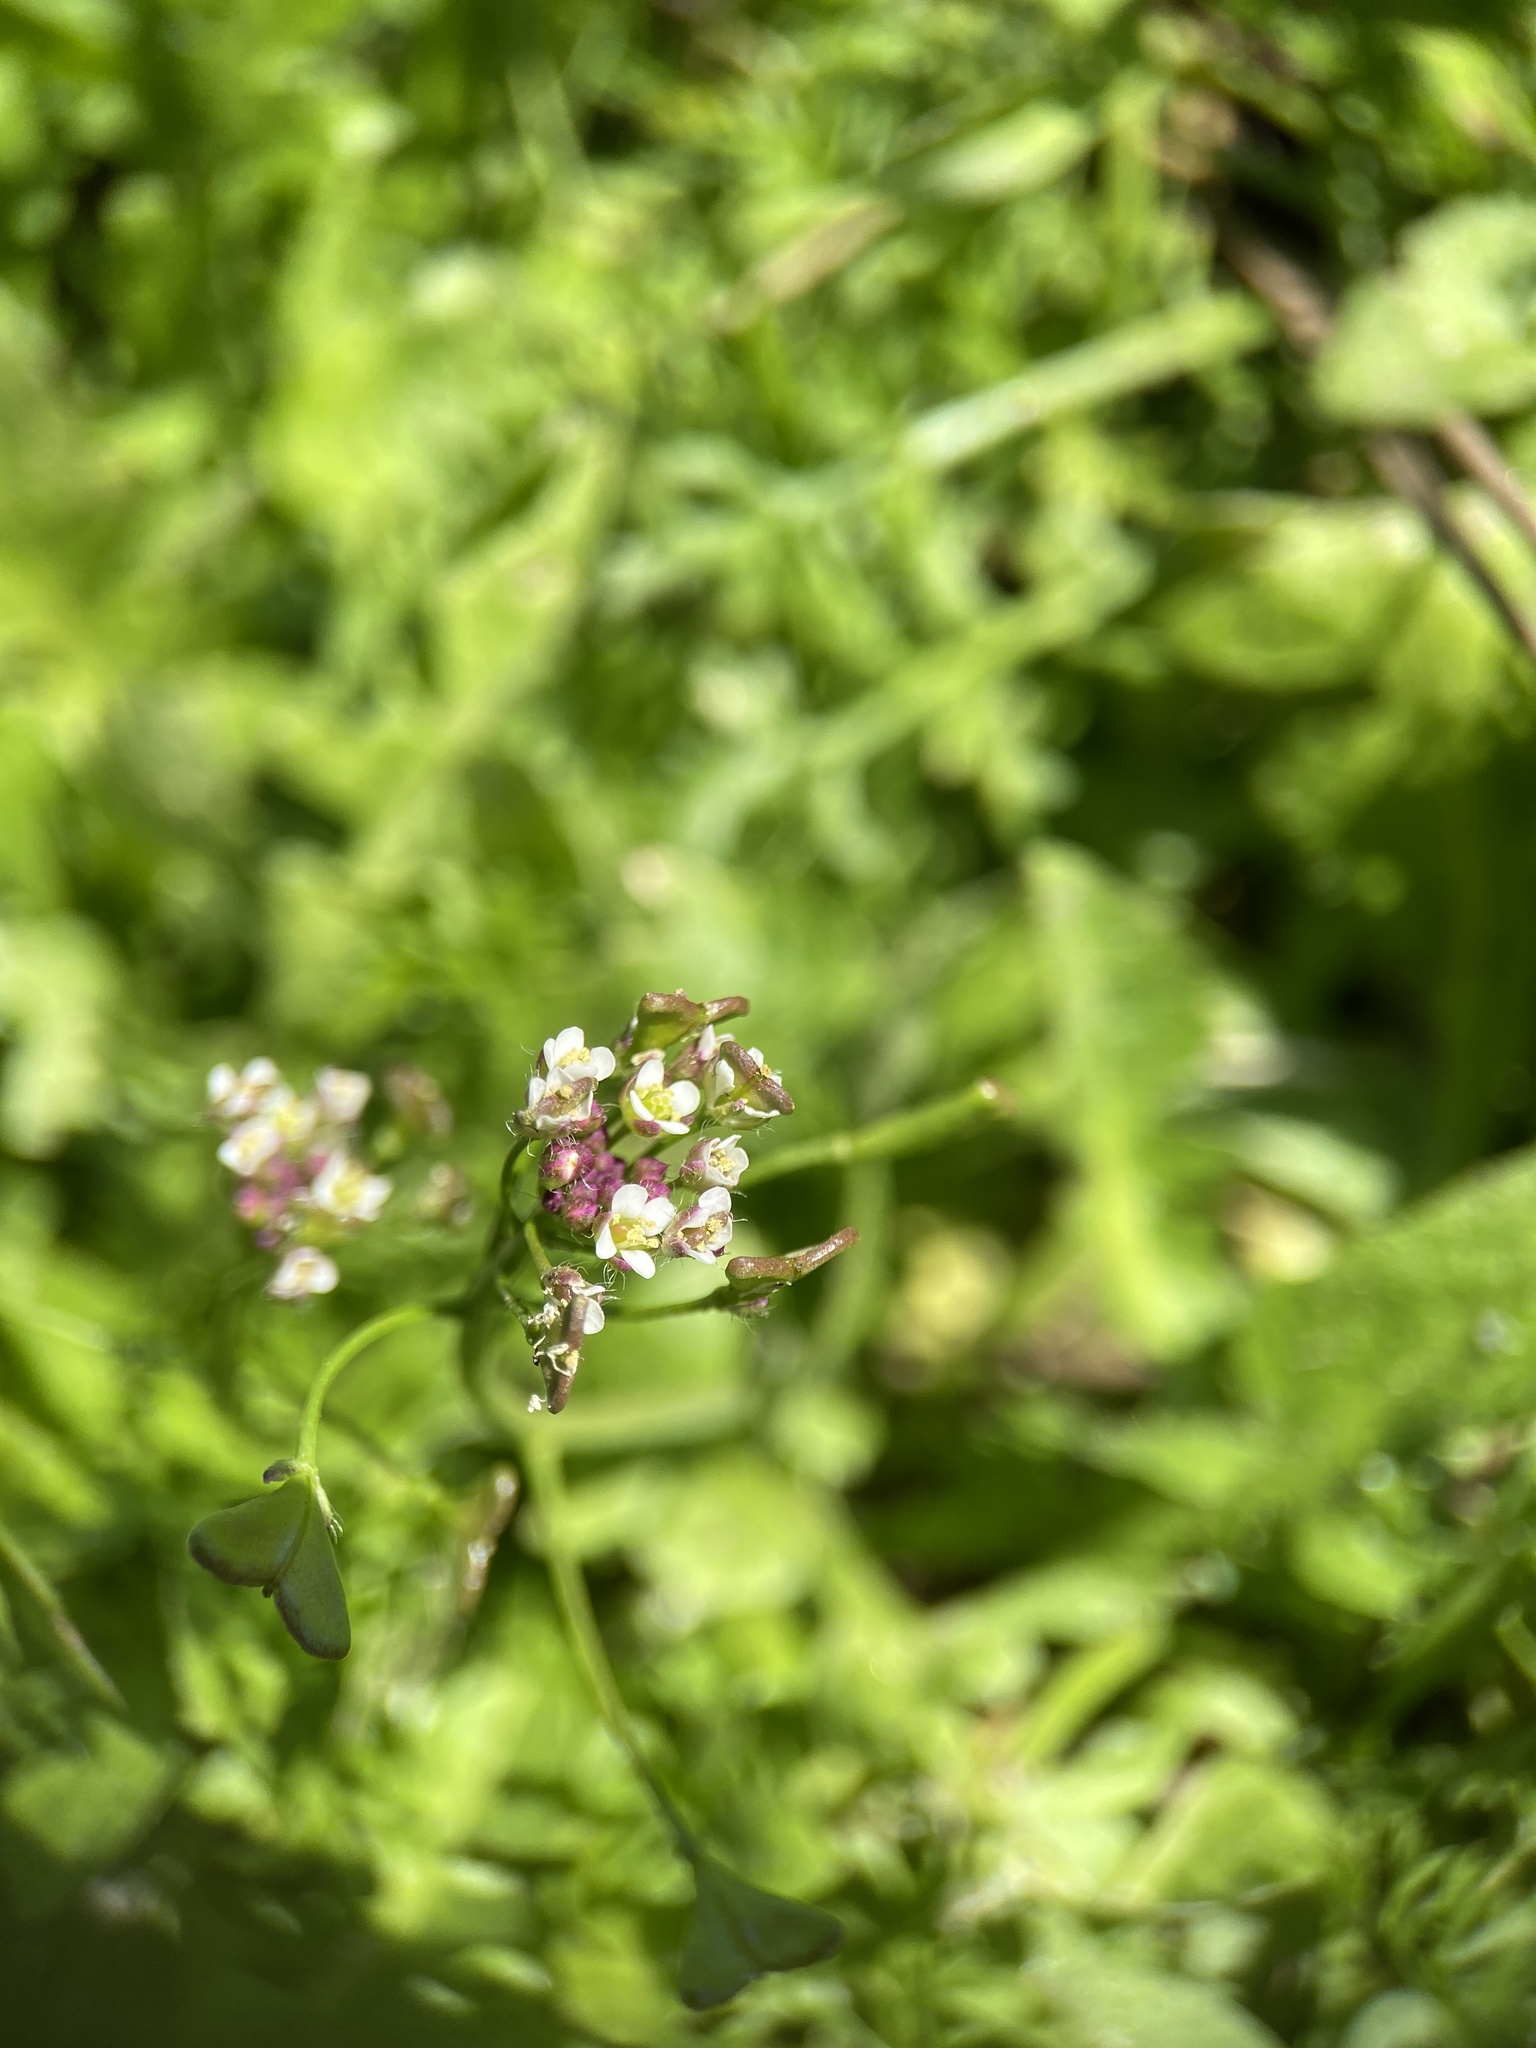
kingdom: Plantae
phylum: Tracheophyta
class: Magnoliopsida
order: Brassicales
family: Brassicaceae
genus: Capsella
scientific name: Capsella bursa-pastoris
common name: Shepherd's purse
